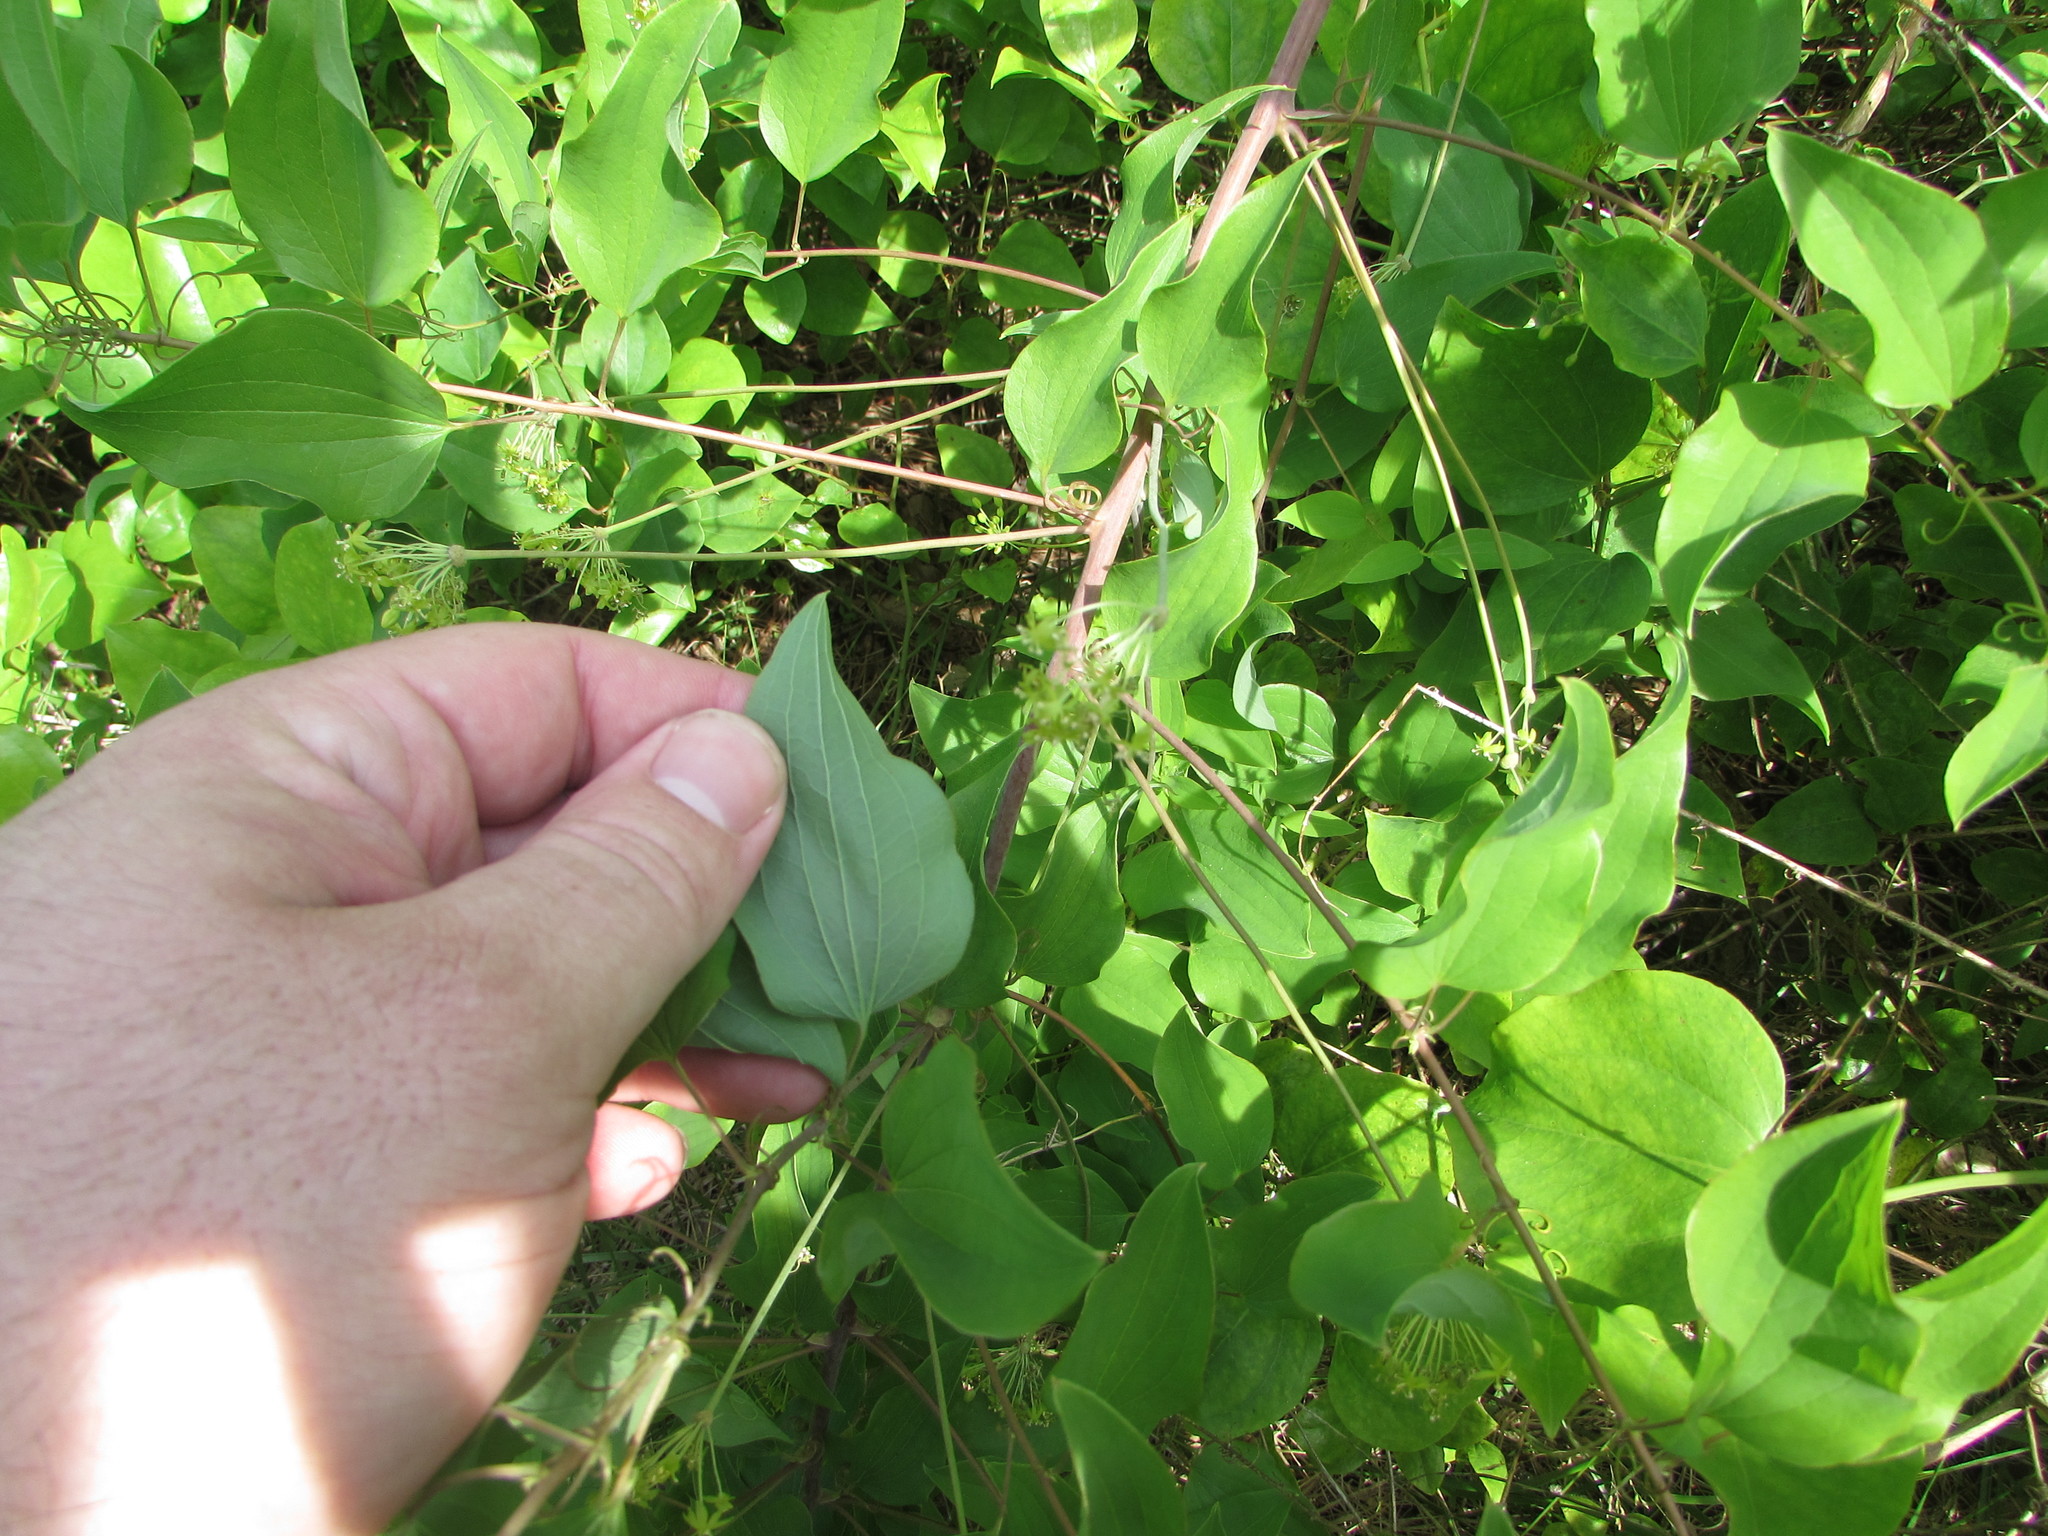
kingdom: Plantae
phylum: Tracheophyta
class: Liliopsida
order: Liliales
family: Smilacaceae
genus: Smilax
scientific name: Smilax herbacea
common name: Jacob's-ladder
